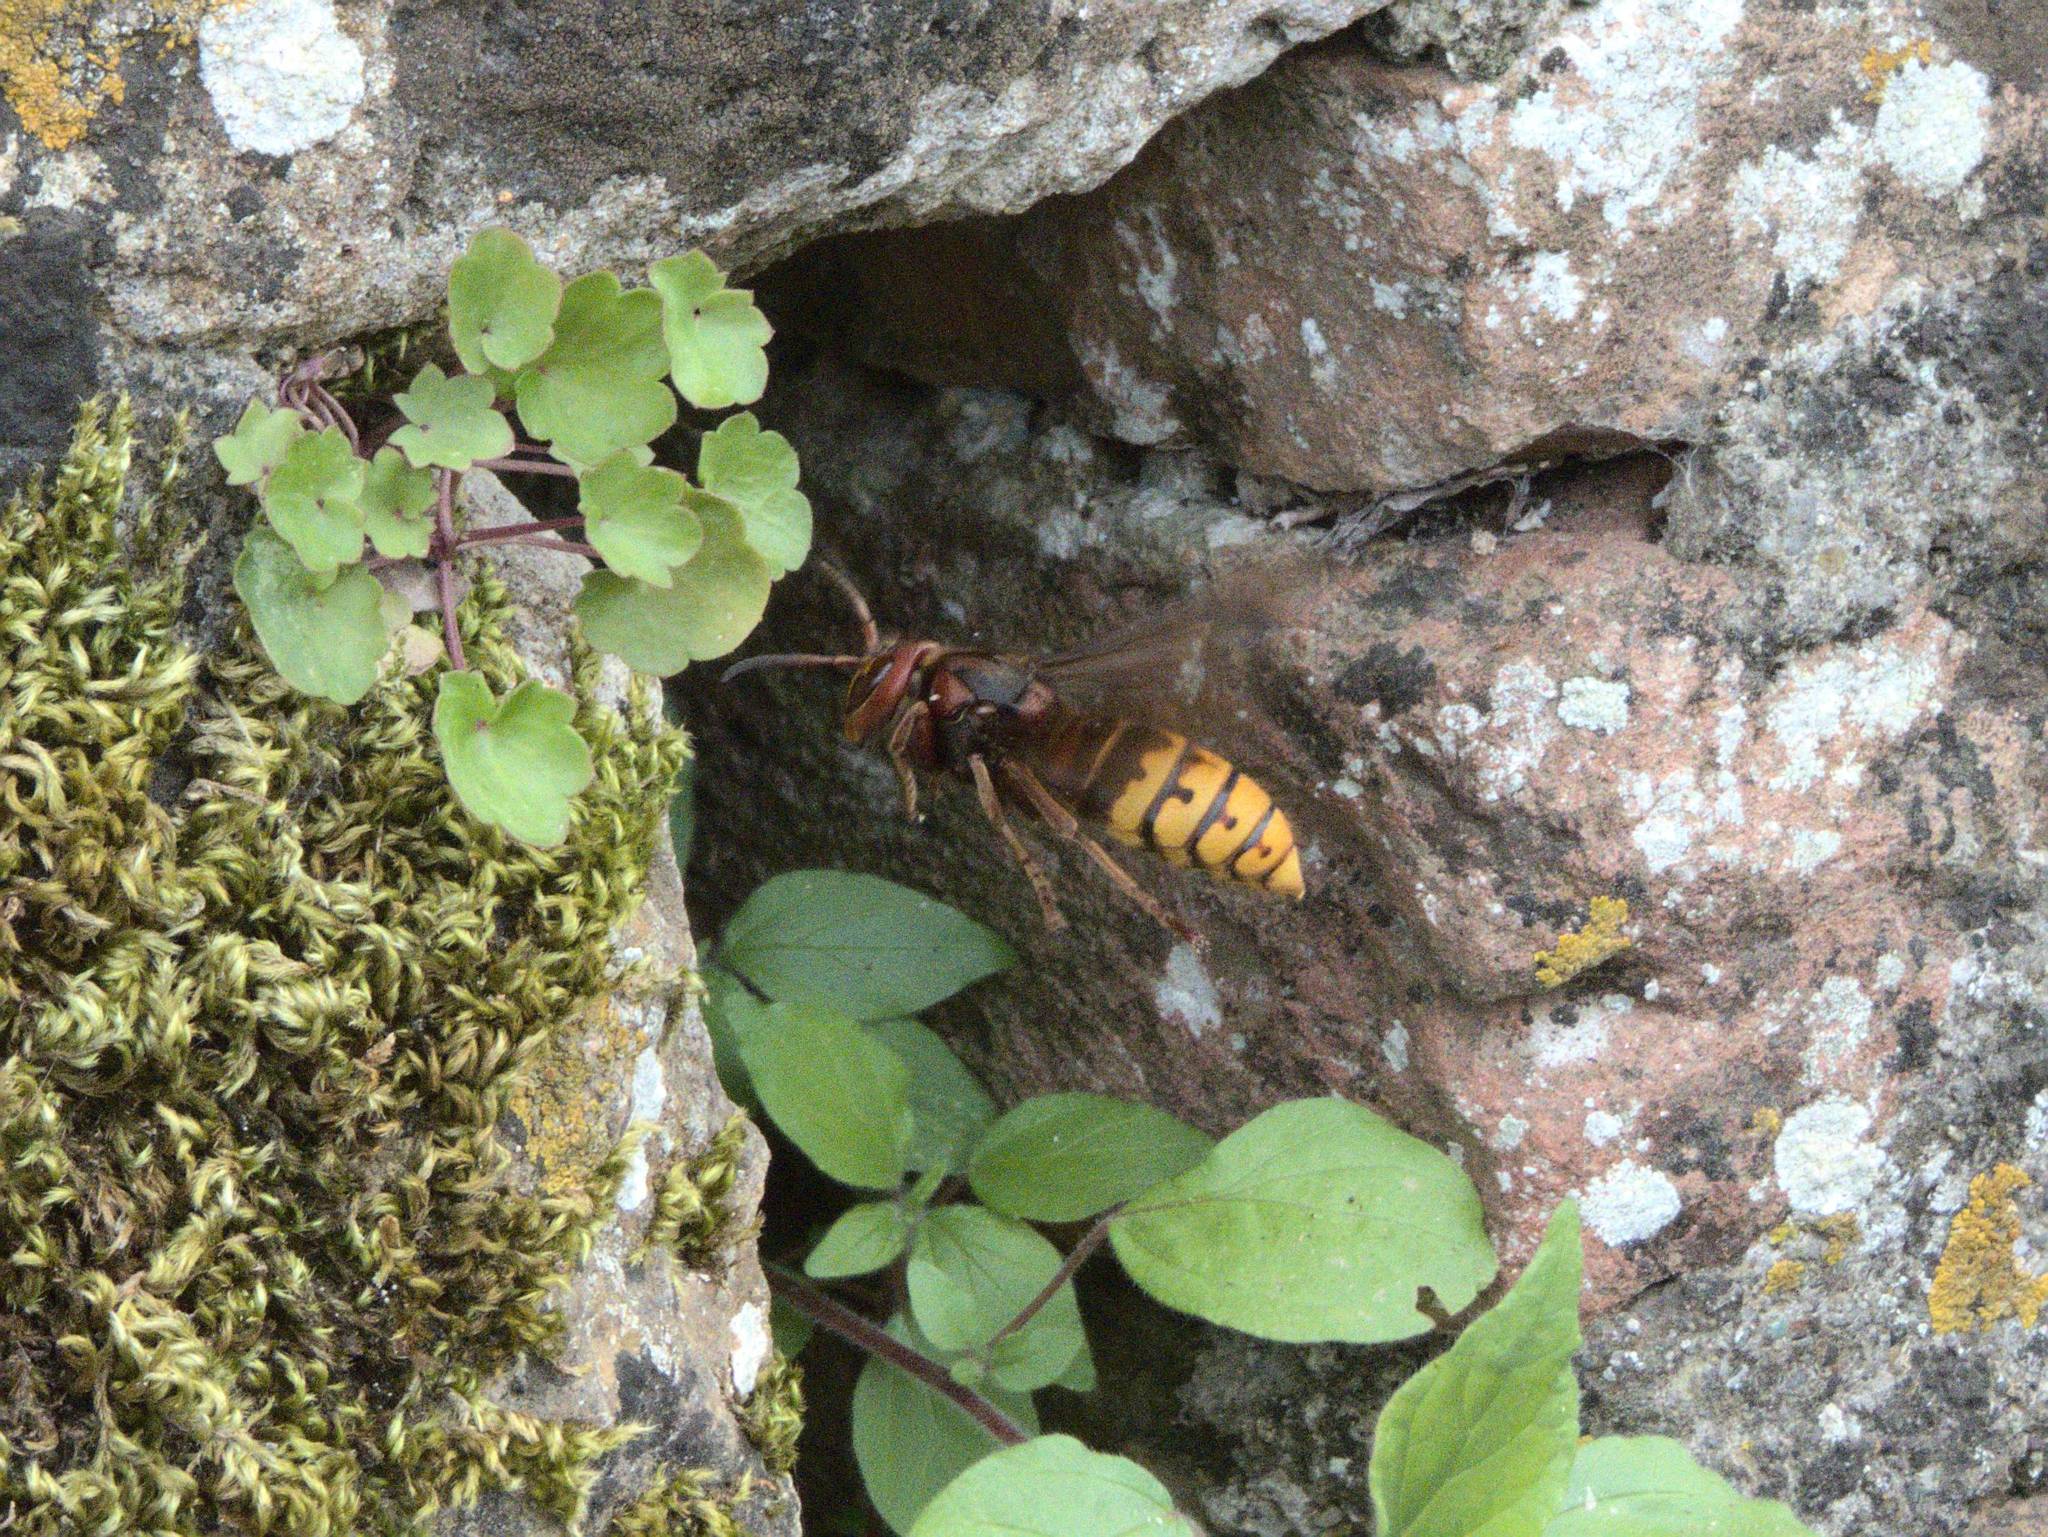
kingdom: Animalia
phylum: Arthropoda
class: Insecta
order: Hymenoptera
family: Vespidae
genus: Vespa
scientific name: Vespa crabro
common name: Hornet
